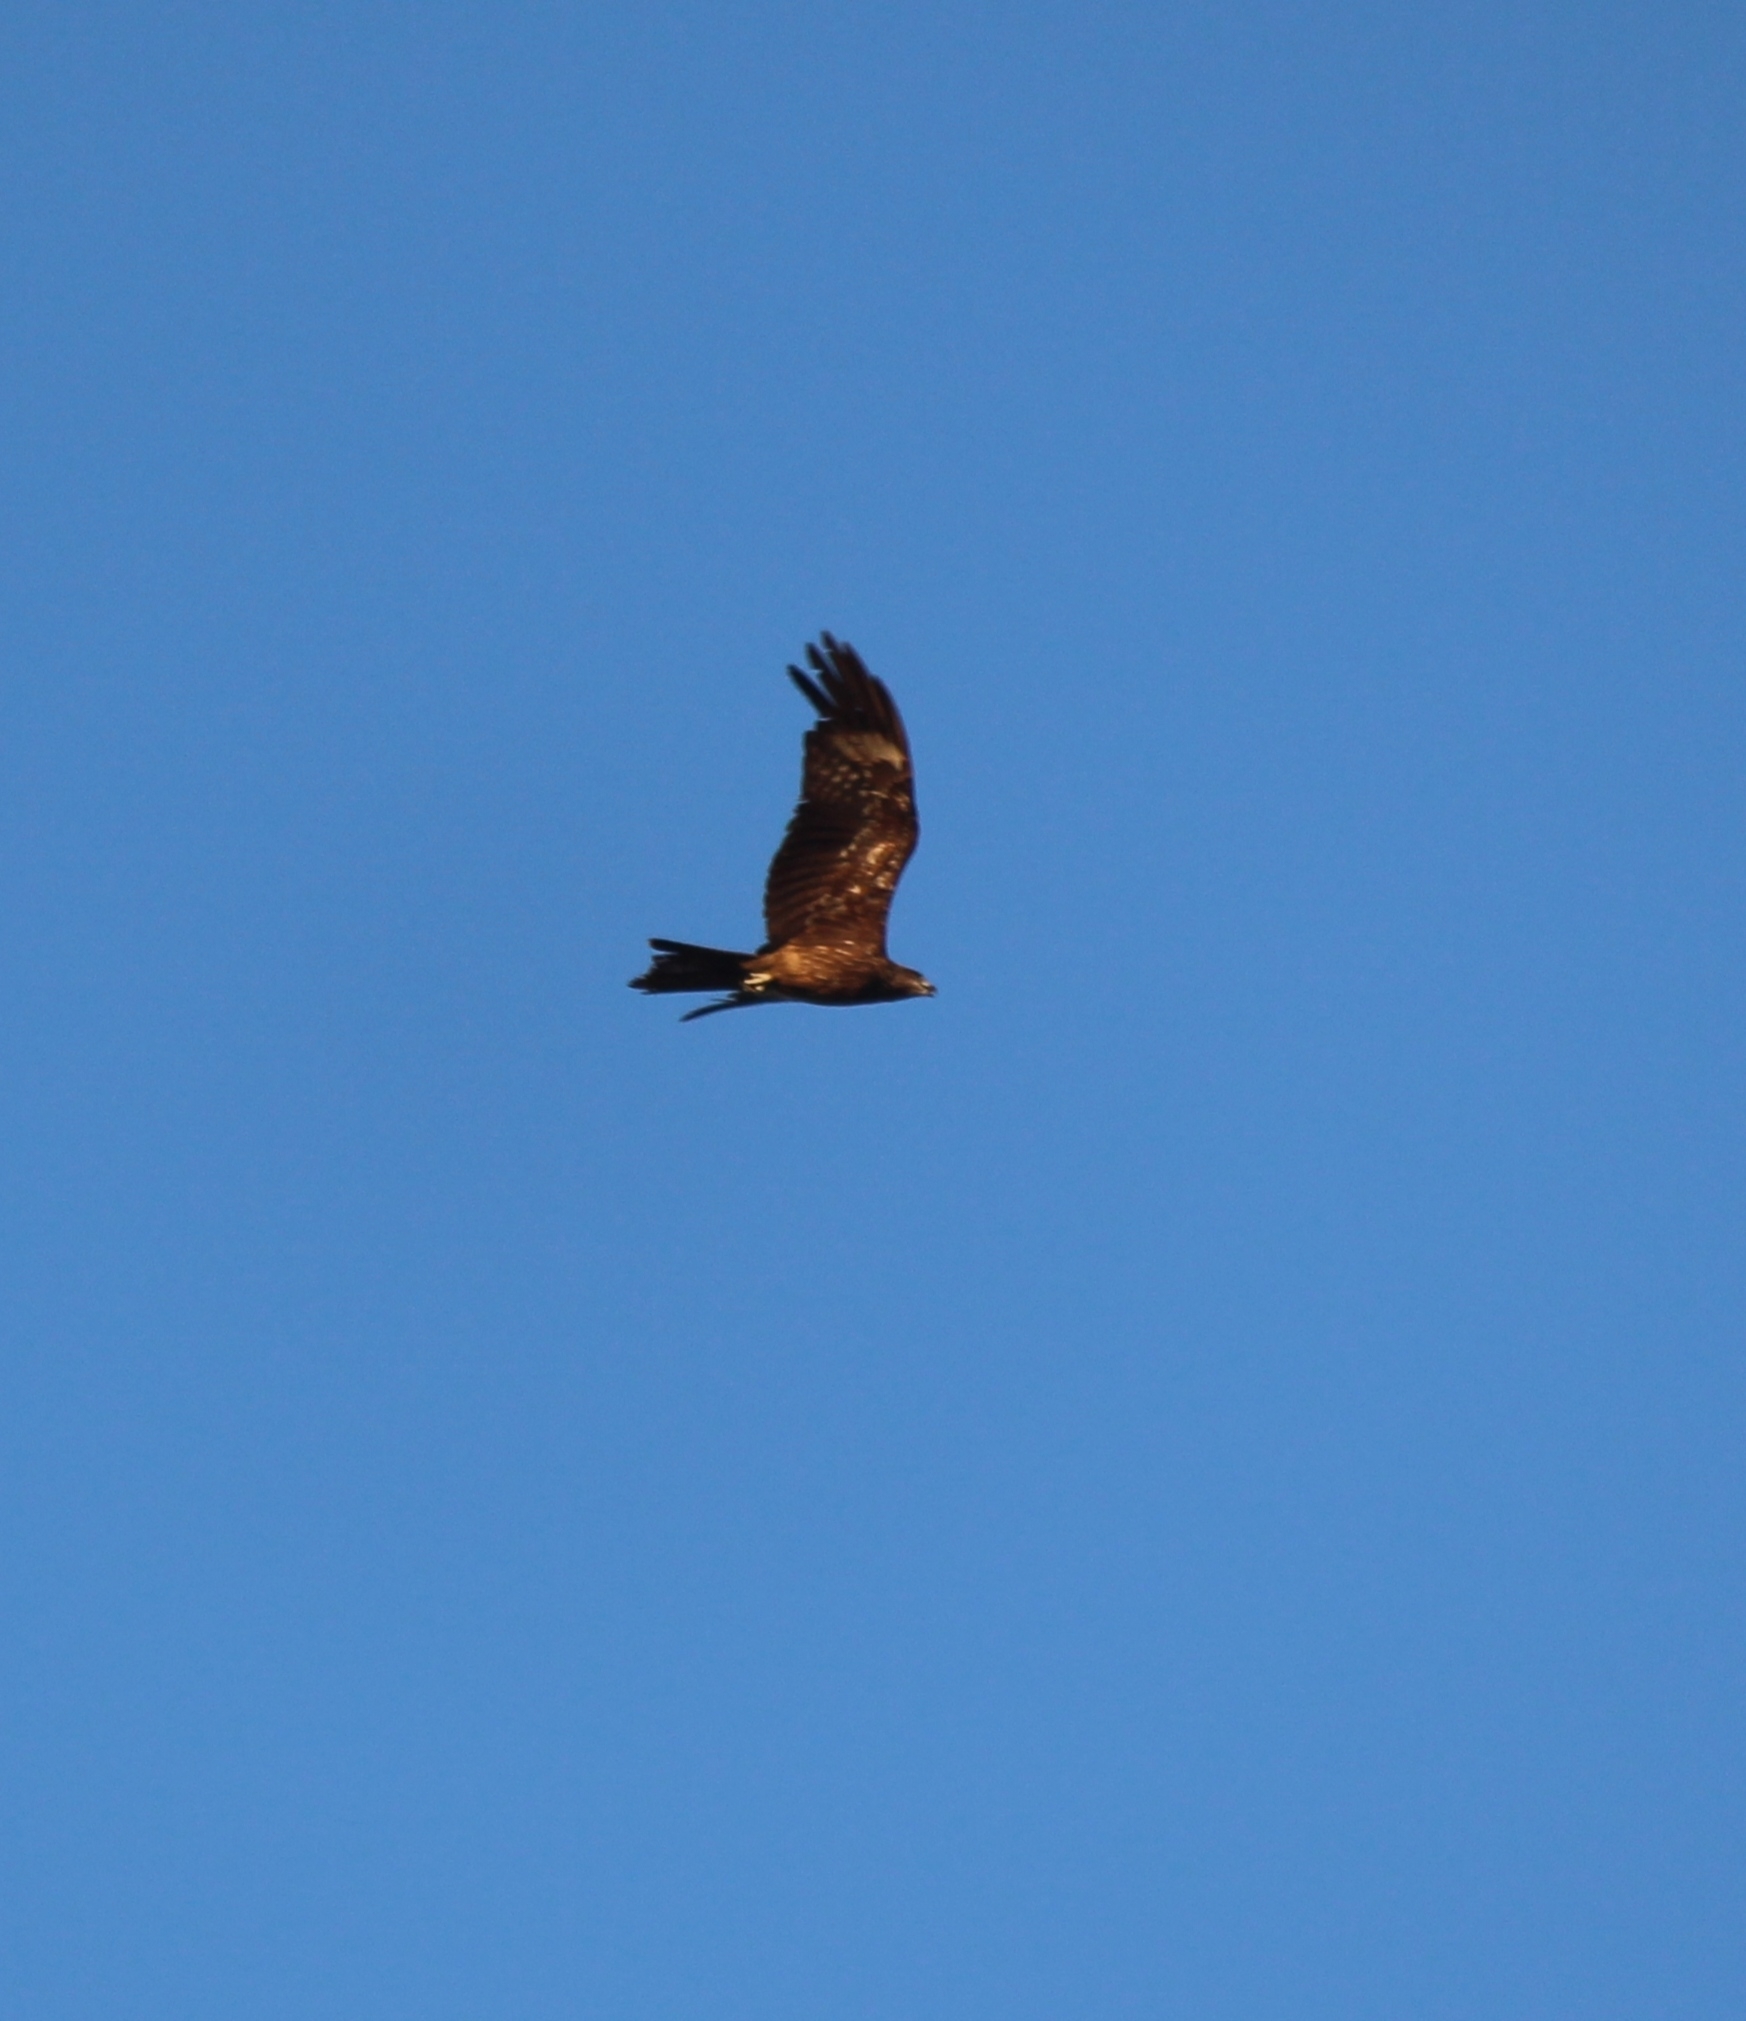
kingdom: Animalia
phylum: Chordata
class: Aves
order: Accipitriformes
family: Accipitridae
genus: Milvus
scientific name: Milvus migrans
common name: Black kite
